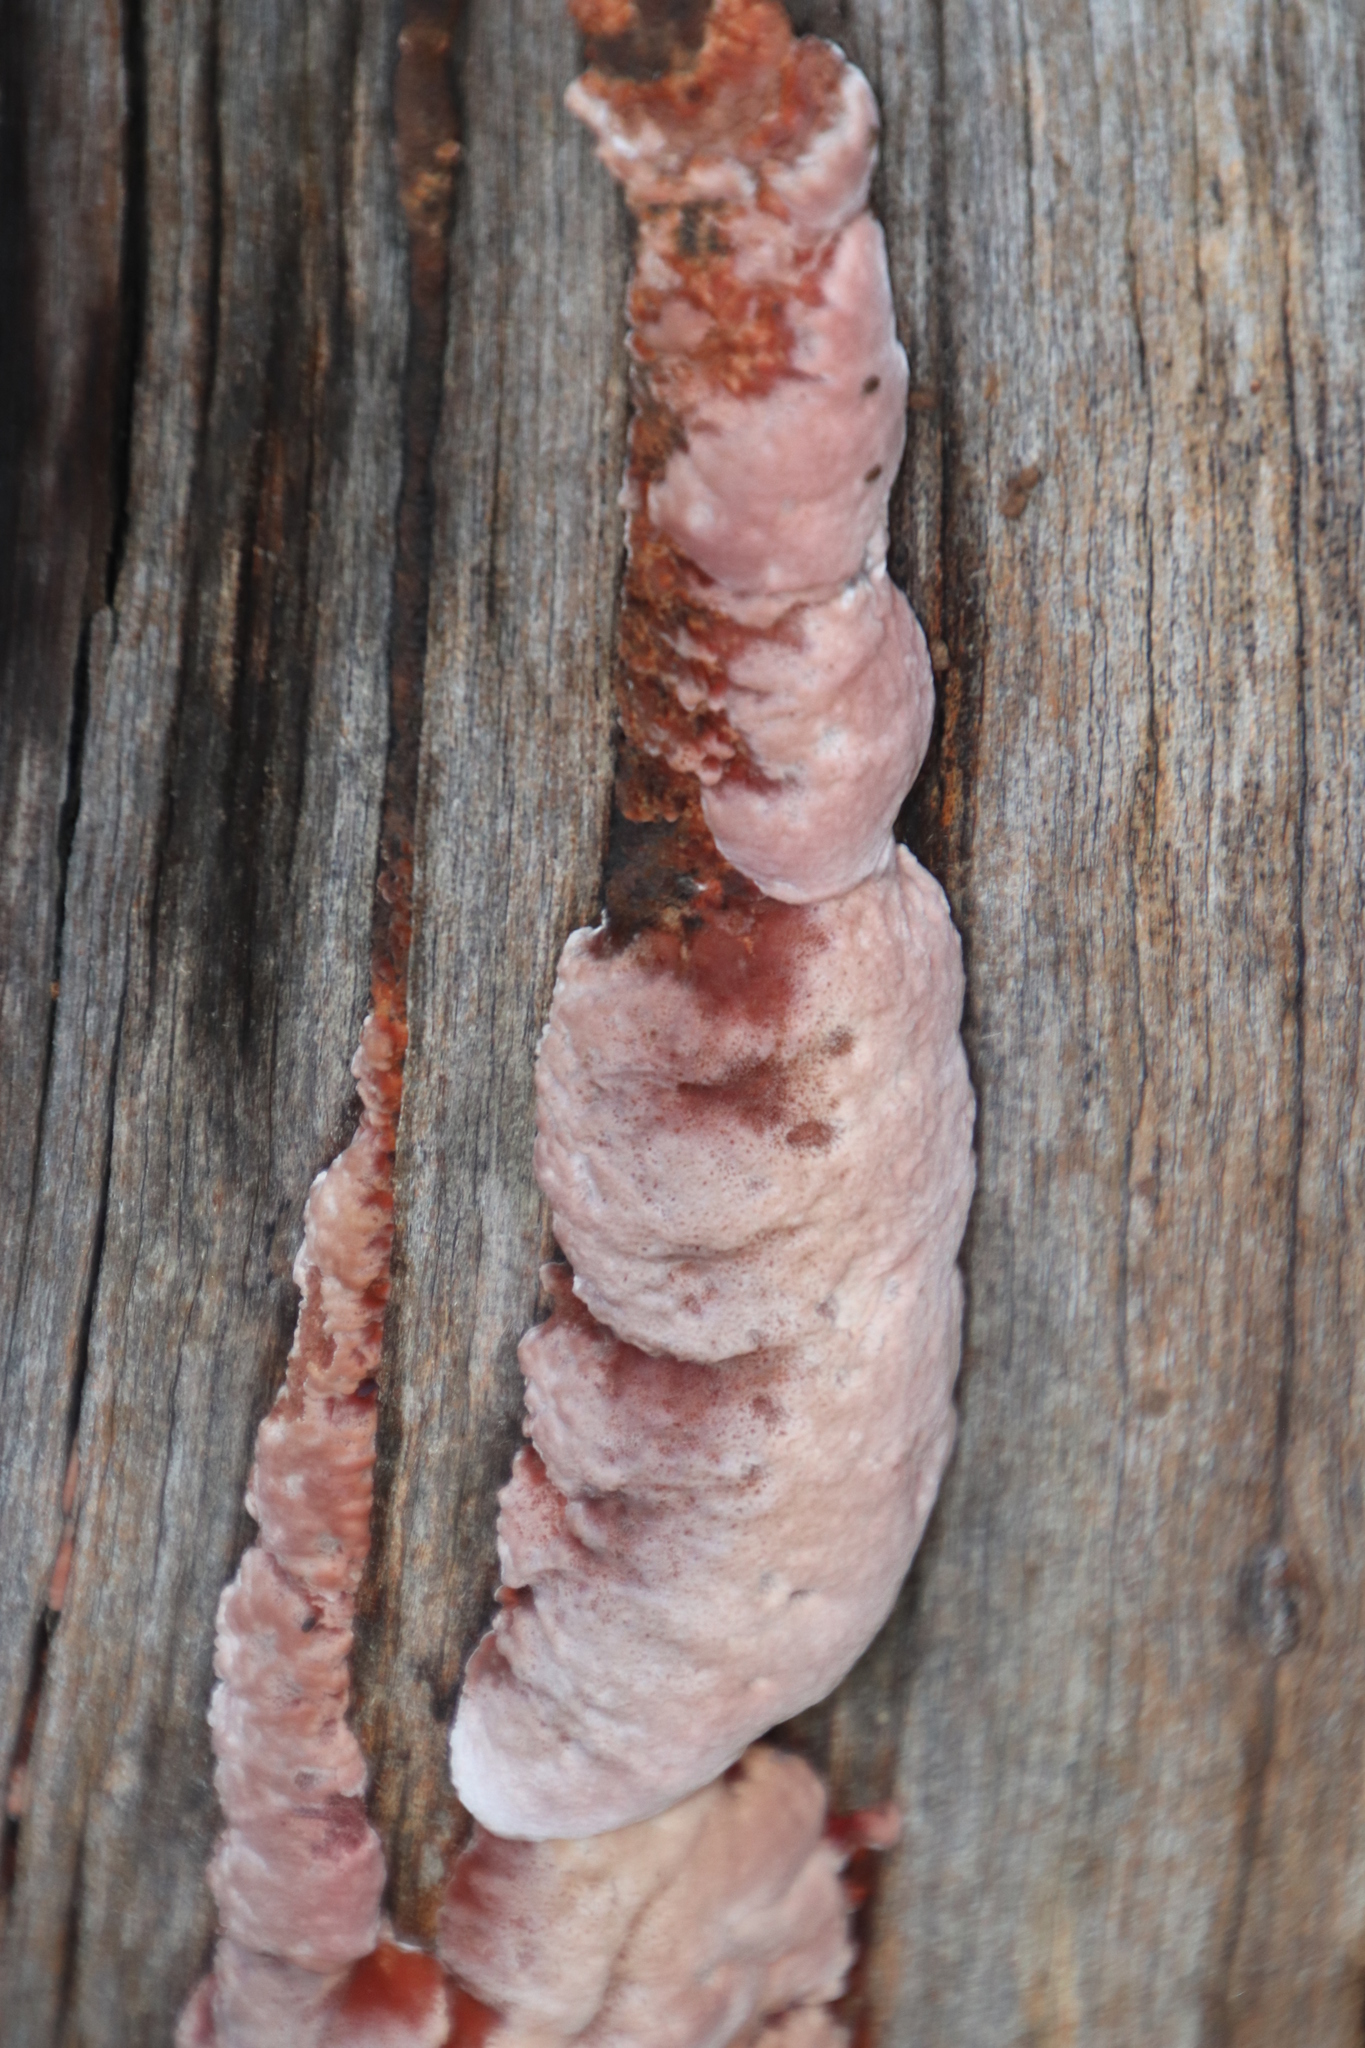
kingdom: Fungi
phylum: Basidiomycota
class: Agaricomycetes
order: Polyporales
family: Fomitopsidaceae
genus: Rhodofomitopsis
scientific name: Rhodofomitopsis lilacinogilva
